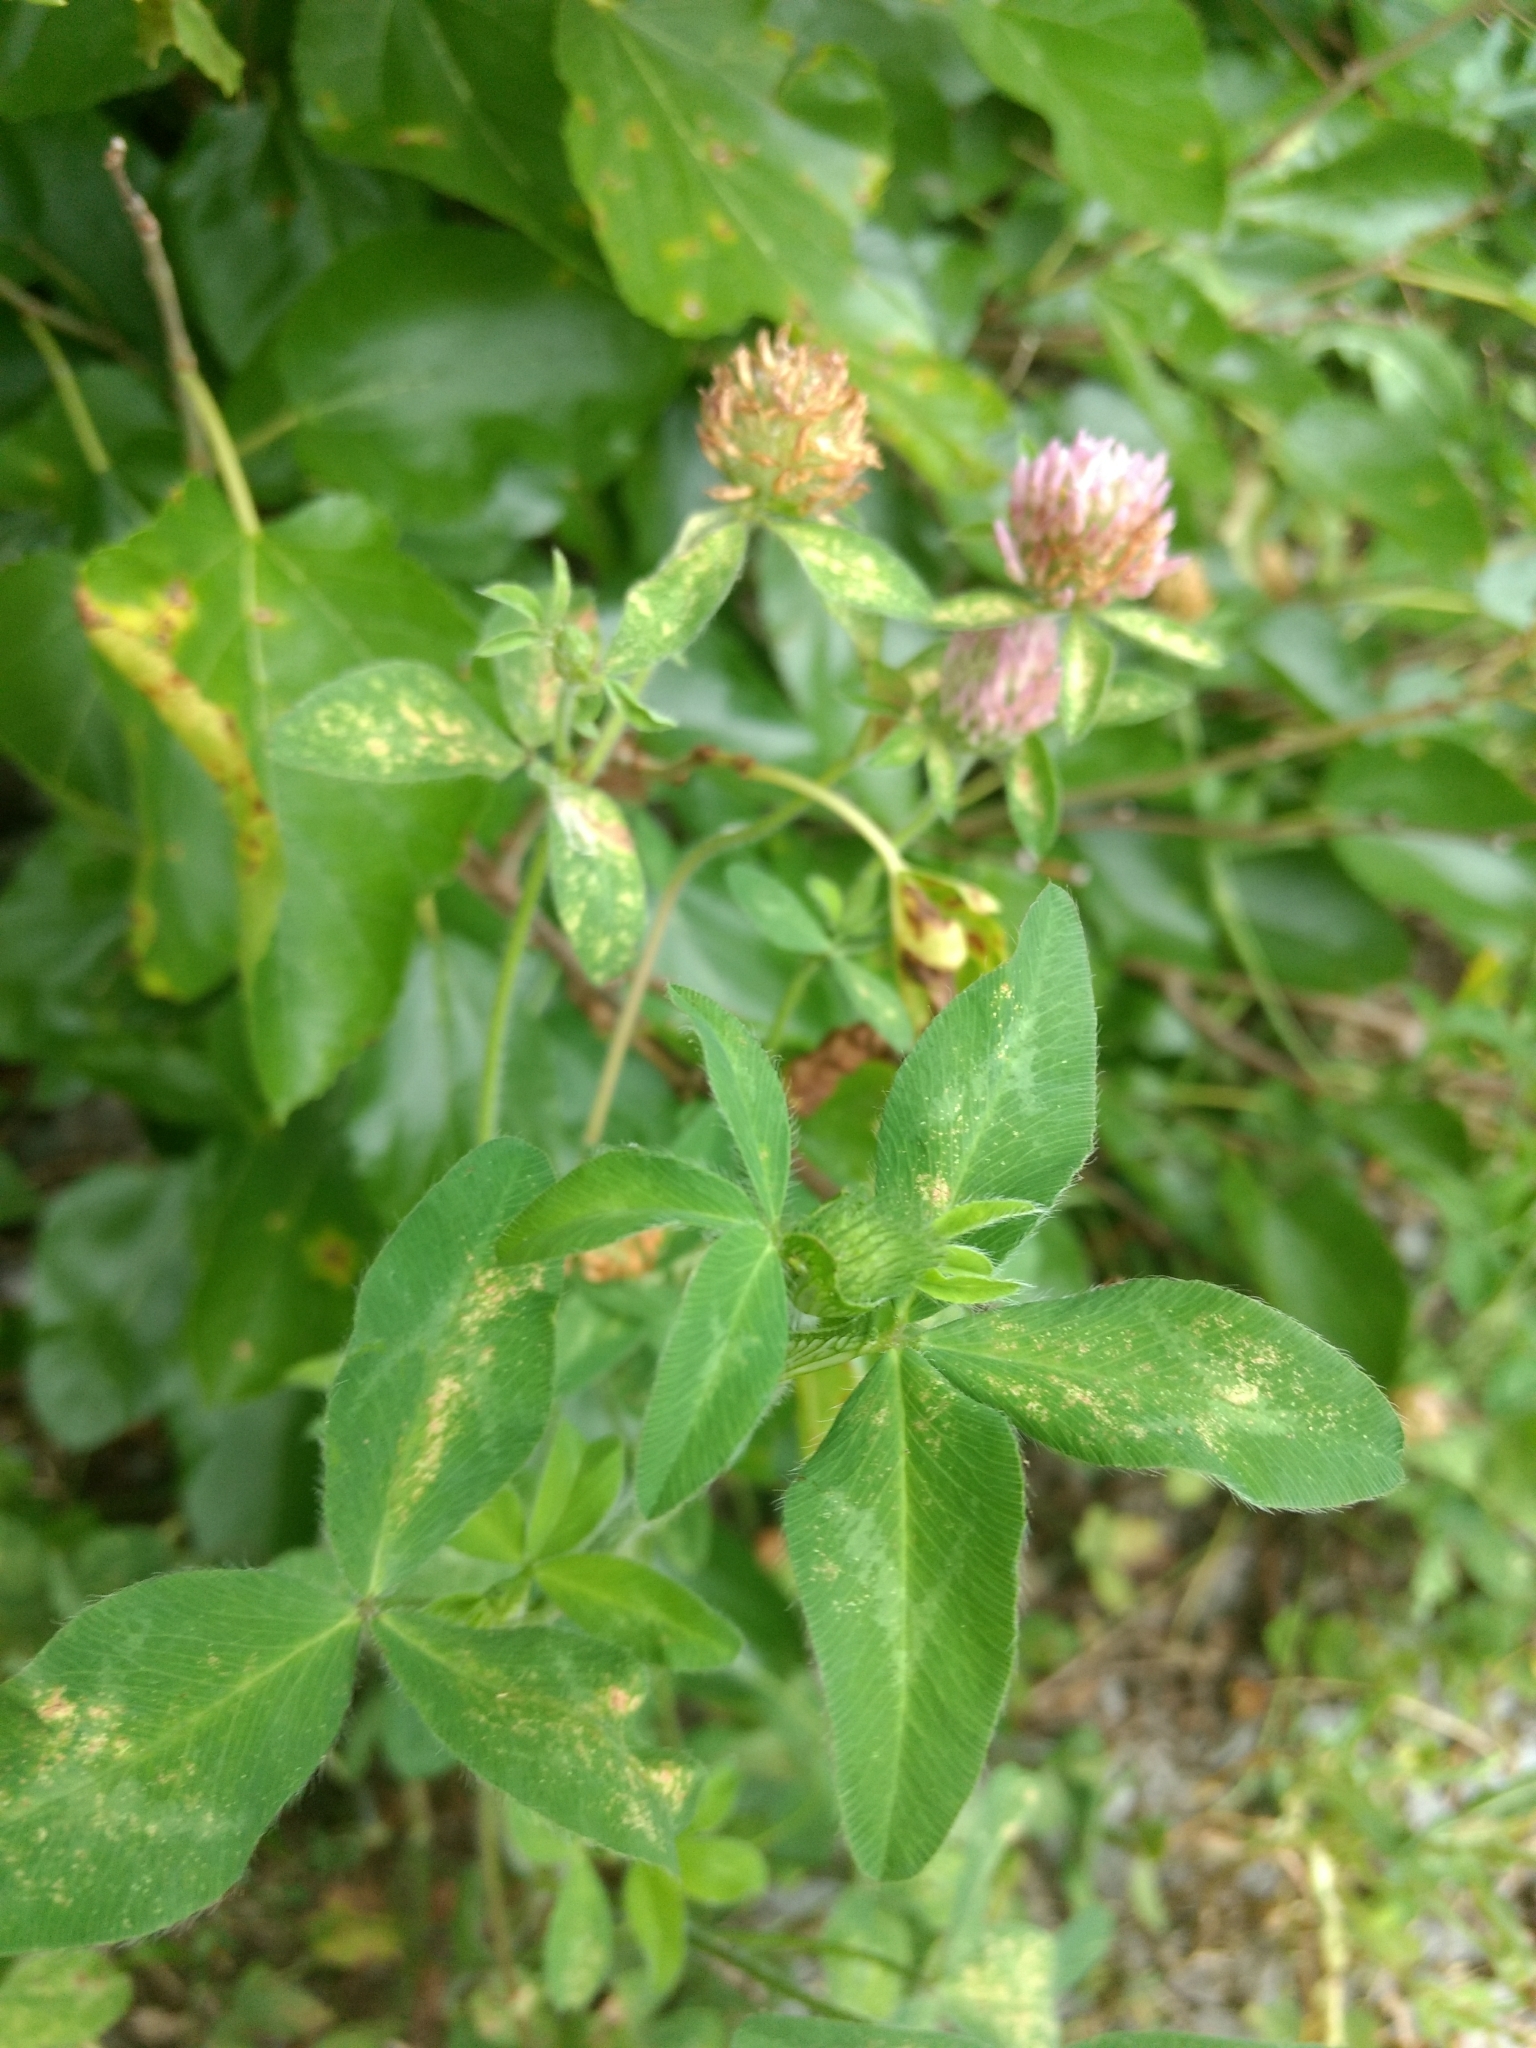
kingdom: Plantae
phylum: Tracheophyta
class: Magnoliopsida
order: Fabales
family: Fabaceae
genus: Trifolium
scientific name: Trifolium pratense
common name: Red clover
